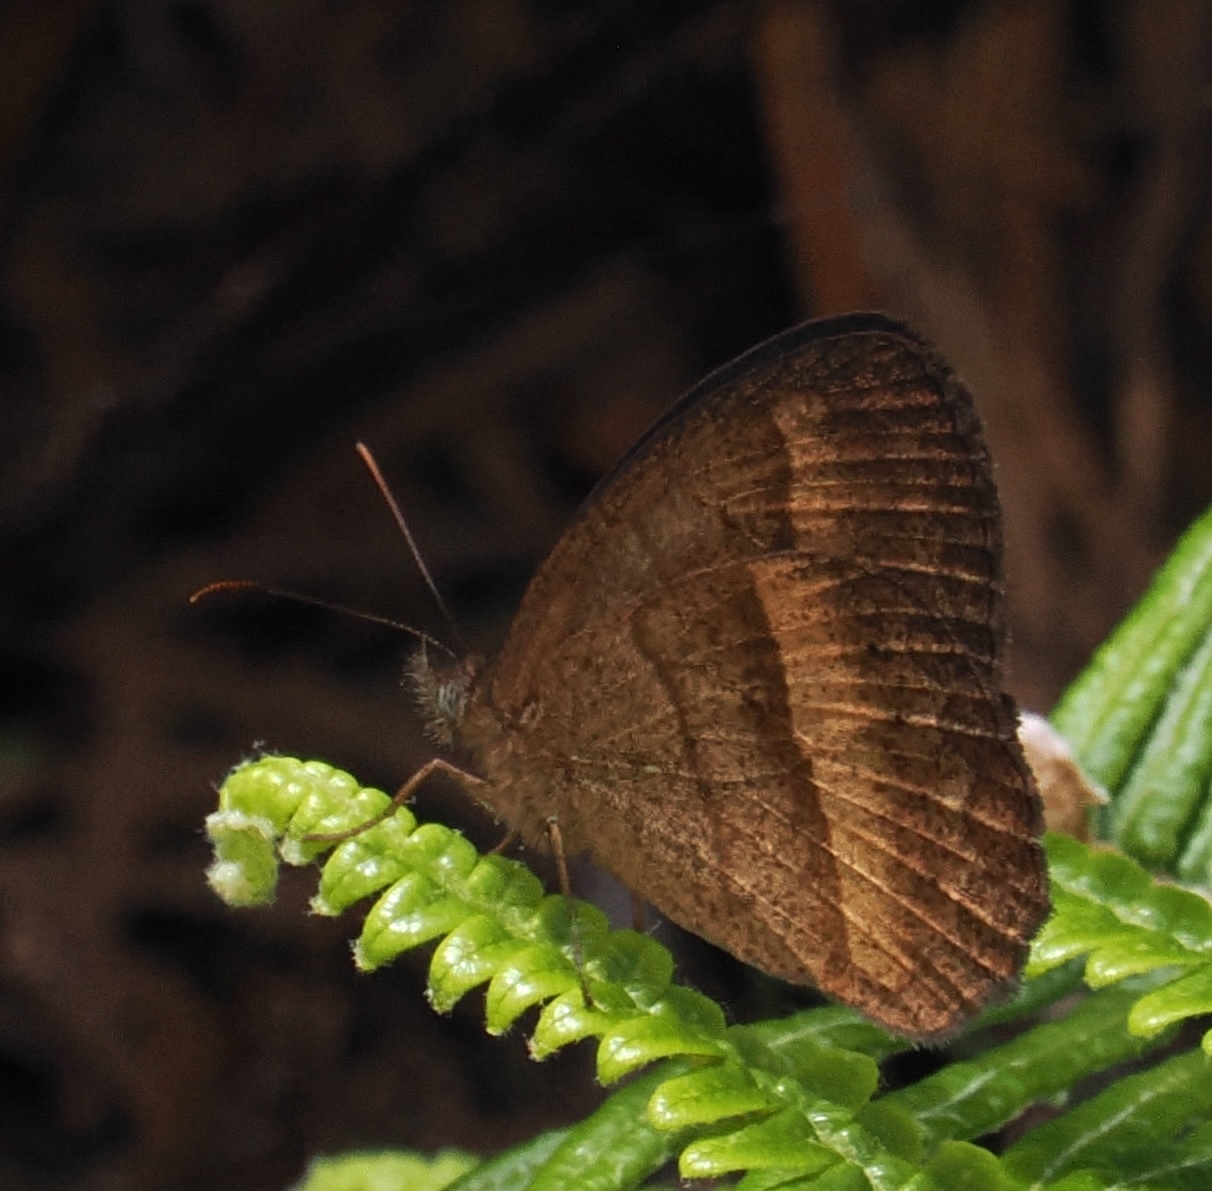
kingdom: Animalia
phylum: Arthropoda
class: Insecta
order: Lepidoptera
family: Nymphalidae
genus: Yphthimoides
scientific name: Yphthimoides ochracea
